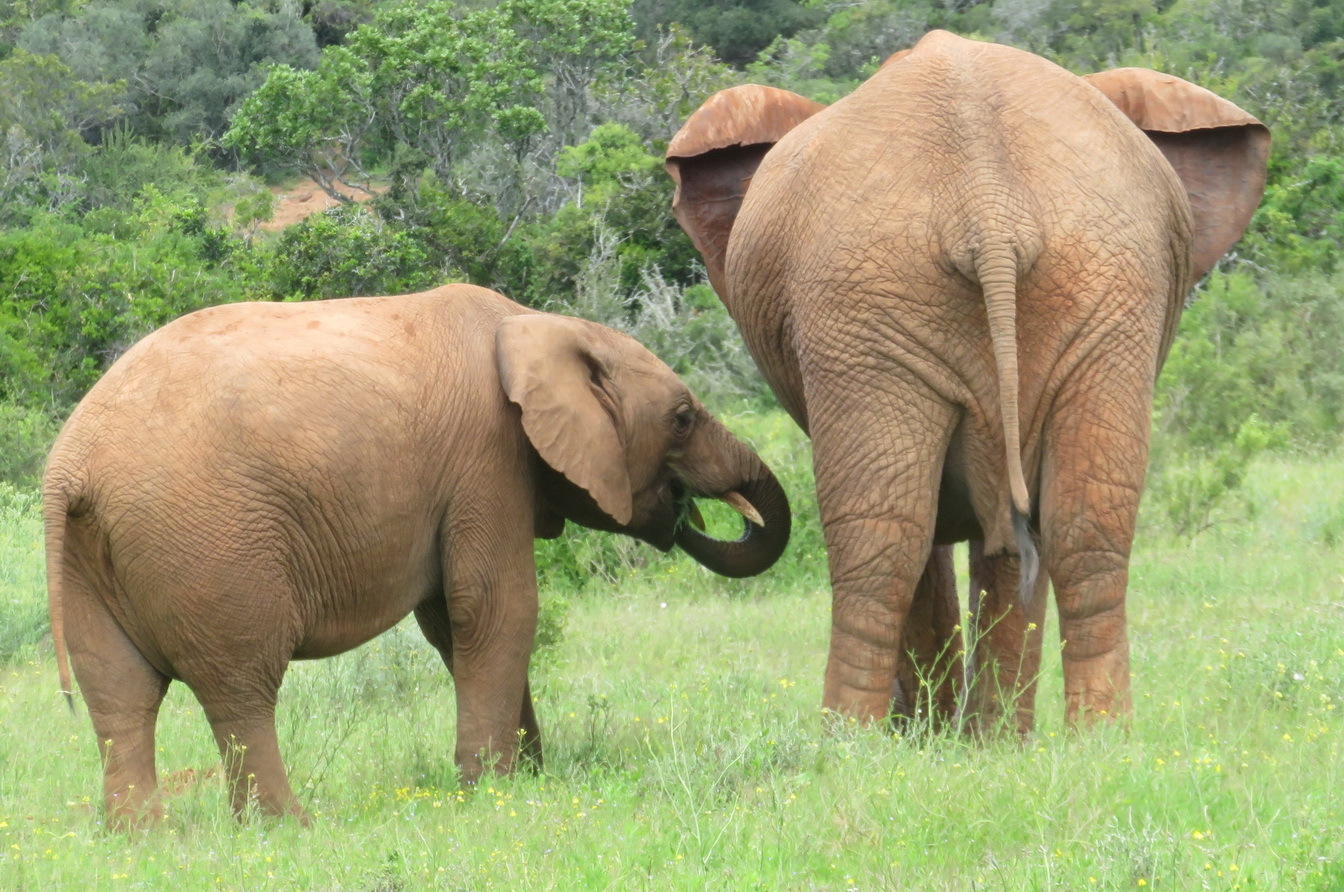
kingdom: Animalia
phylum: Chordata
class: Mammalia
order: Proboscidea
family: Elephantidae
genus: Loxodonta
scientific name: Loxodonta africana
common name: African elephant
